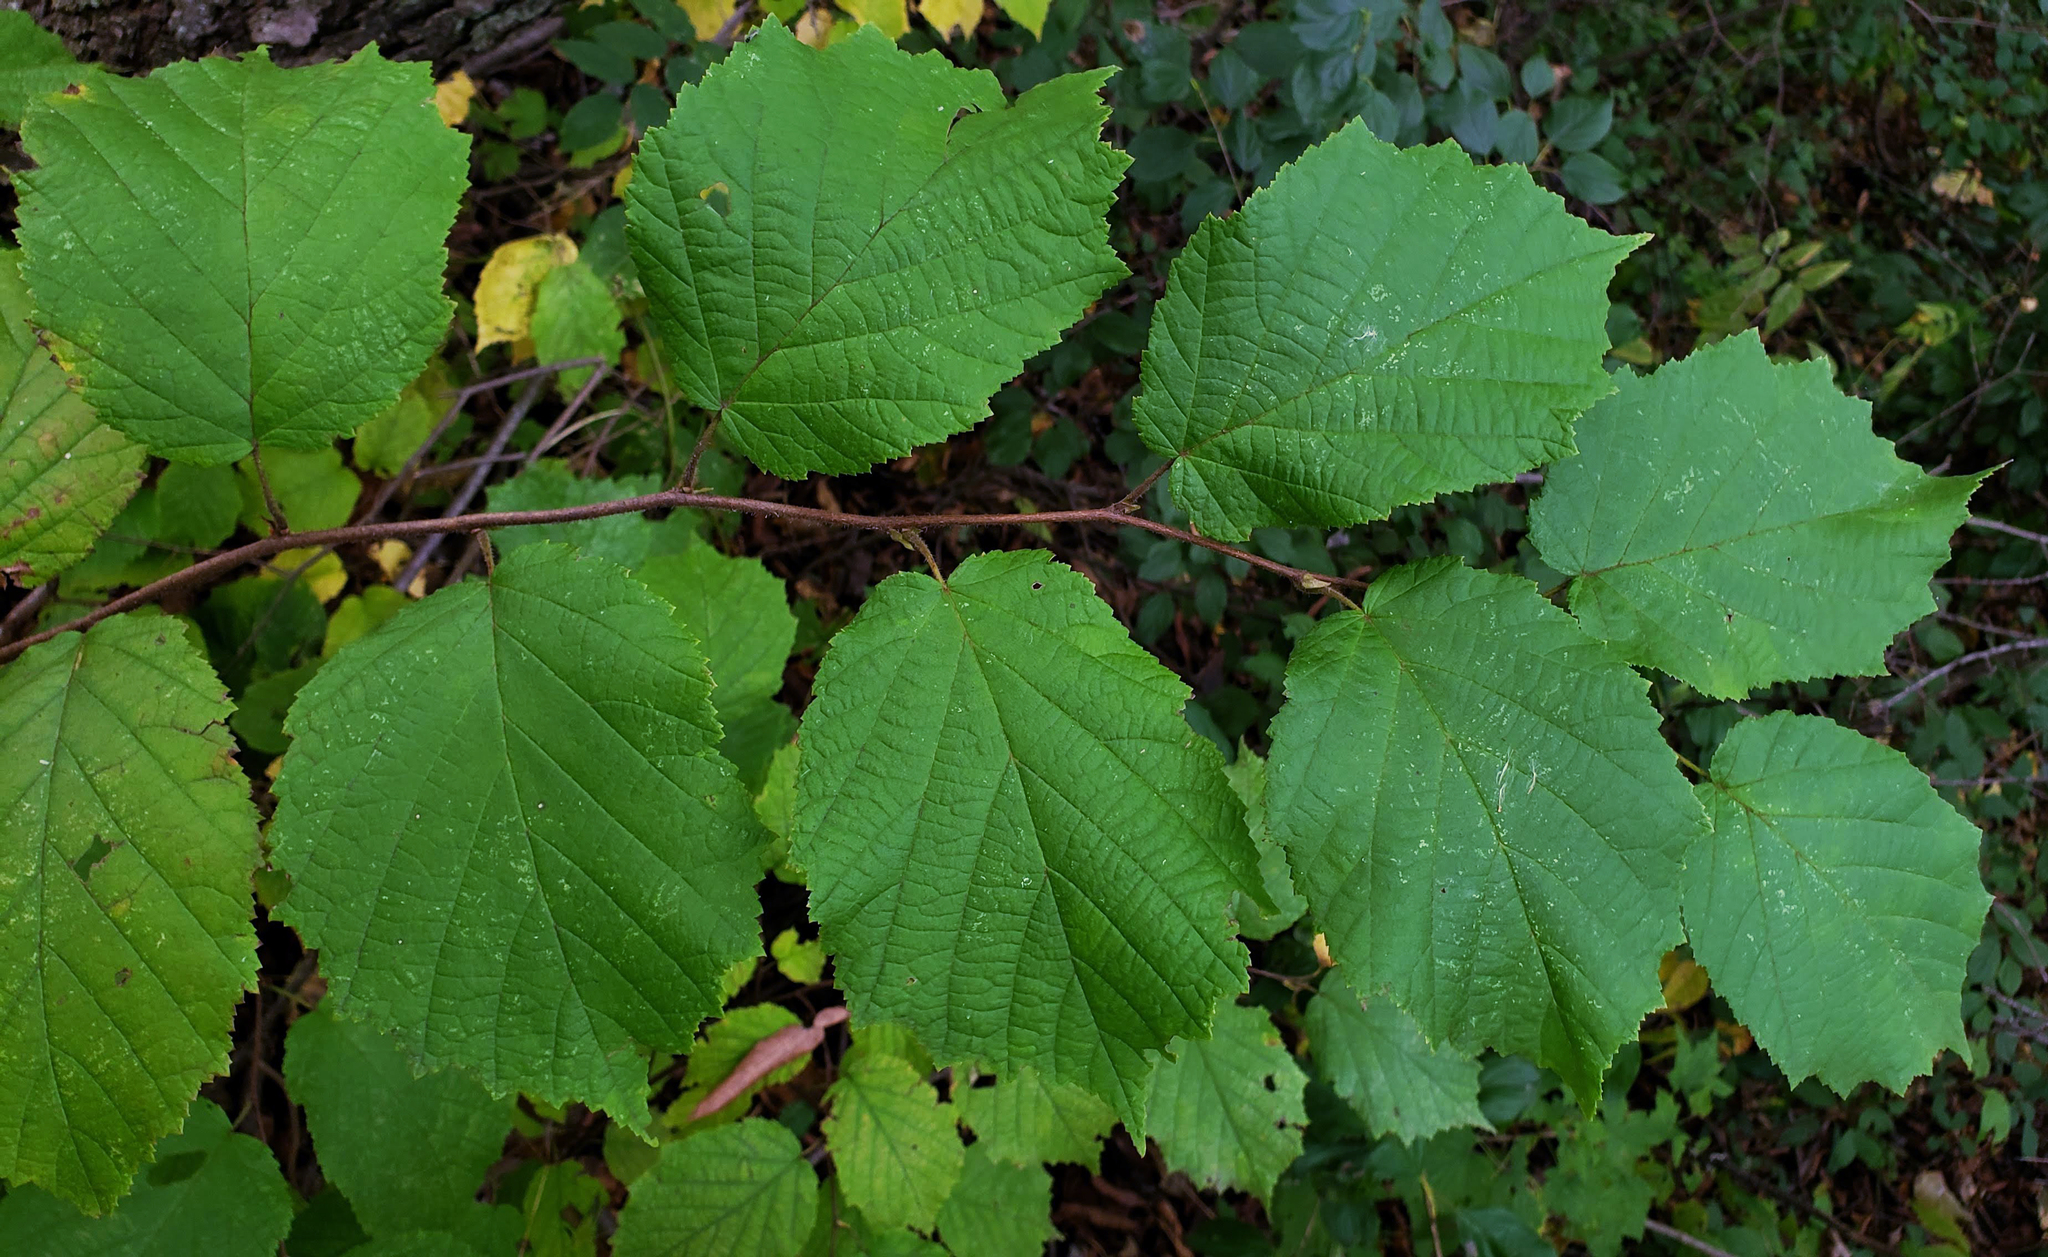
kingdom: Plantae
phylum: Tracheophyta
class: Magnoliopsida
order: Fagales
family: Betulaceae
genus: Corylus
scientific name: Corylus americana
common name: American hazel
